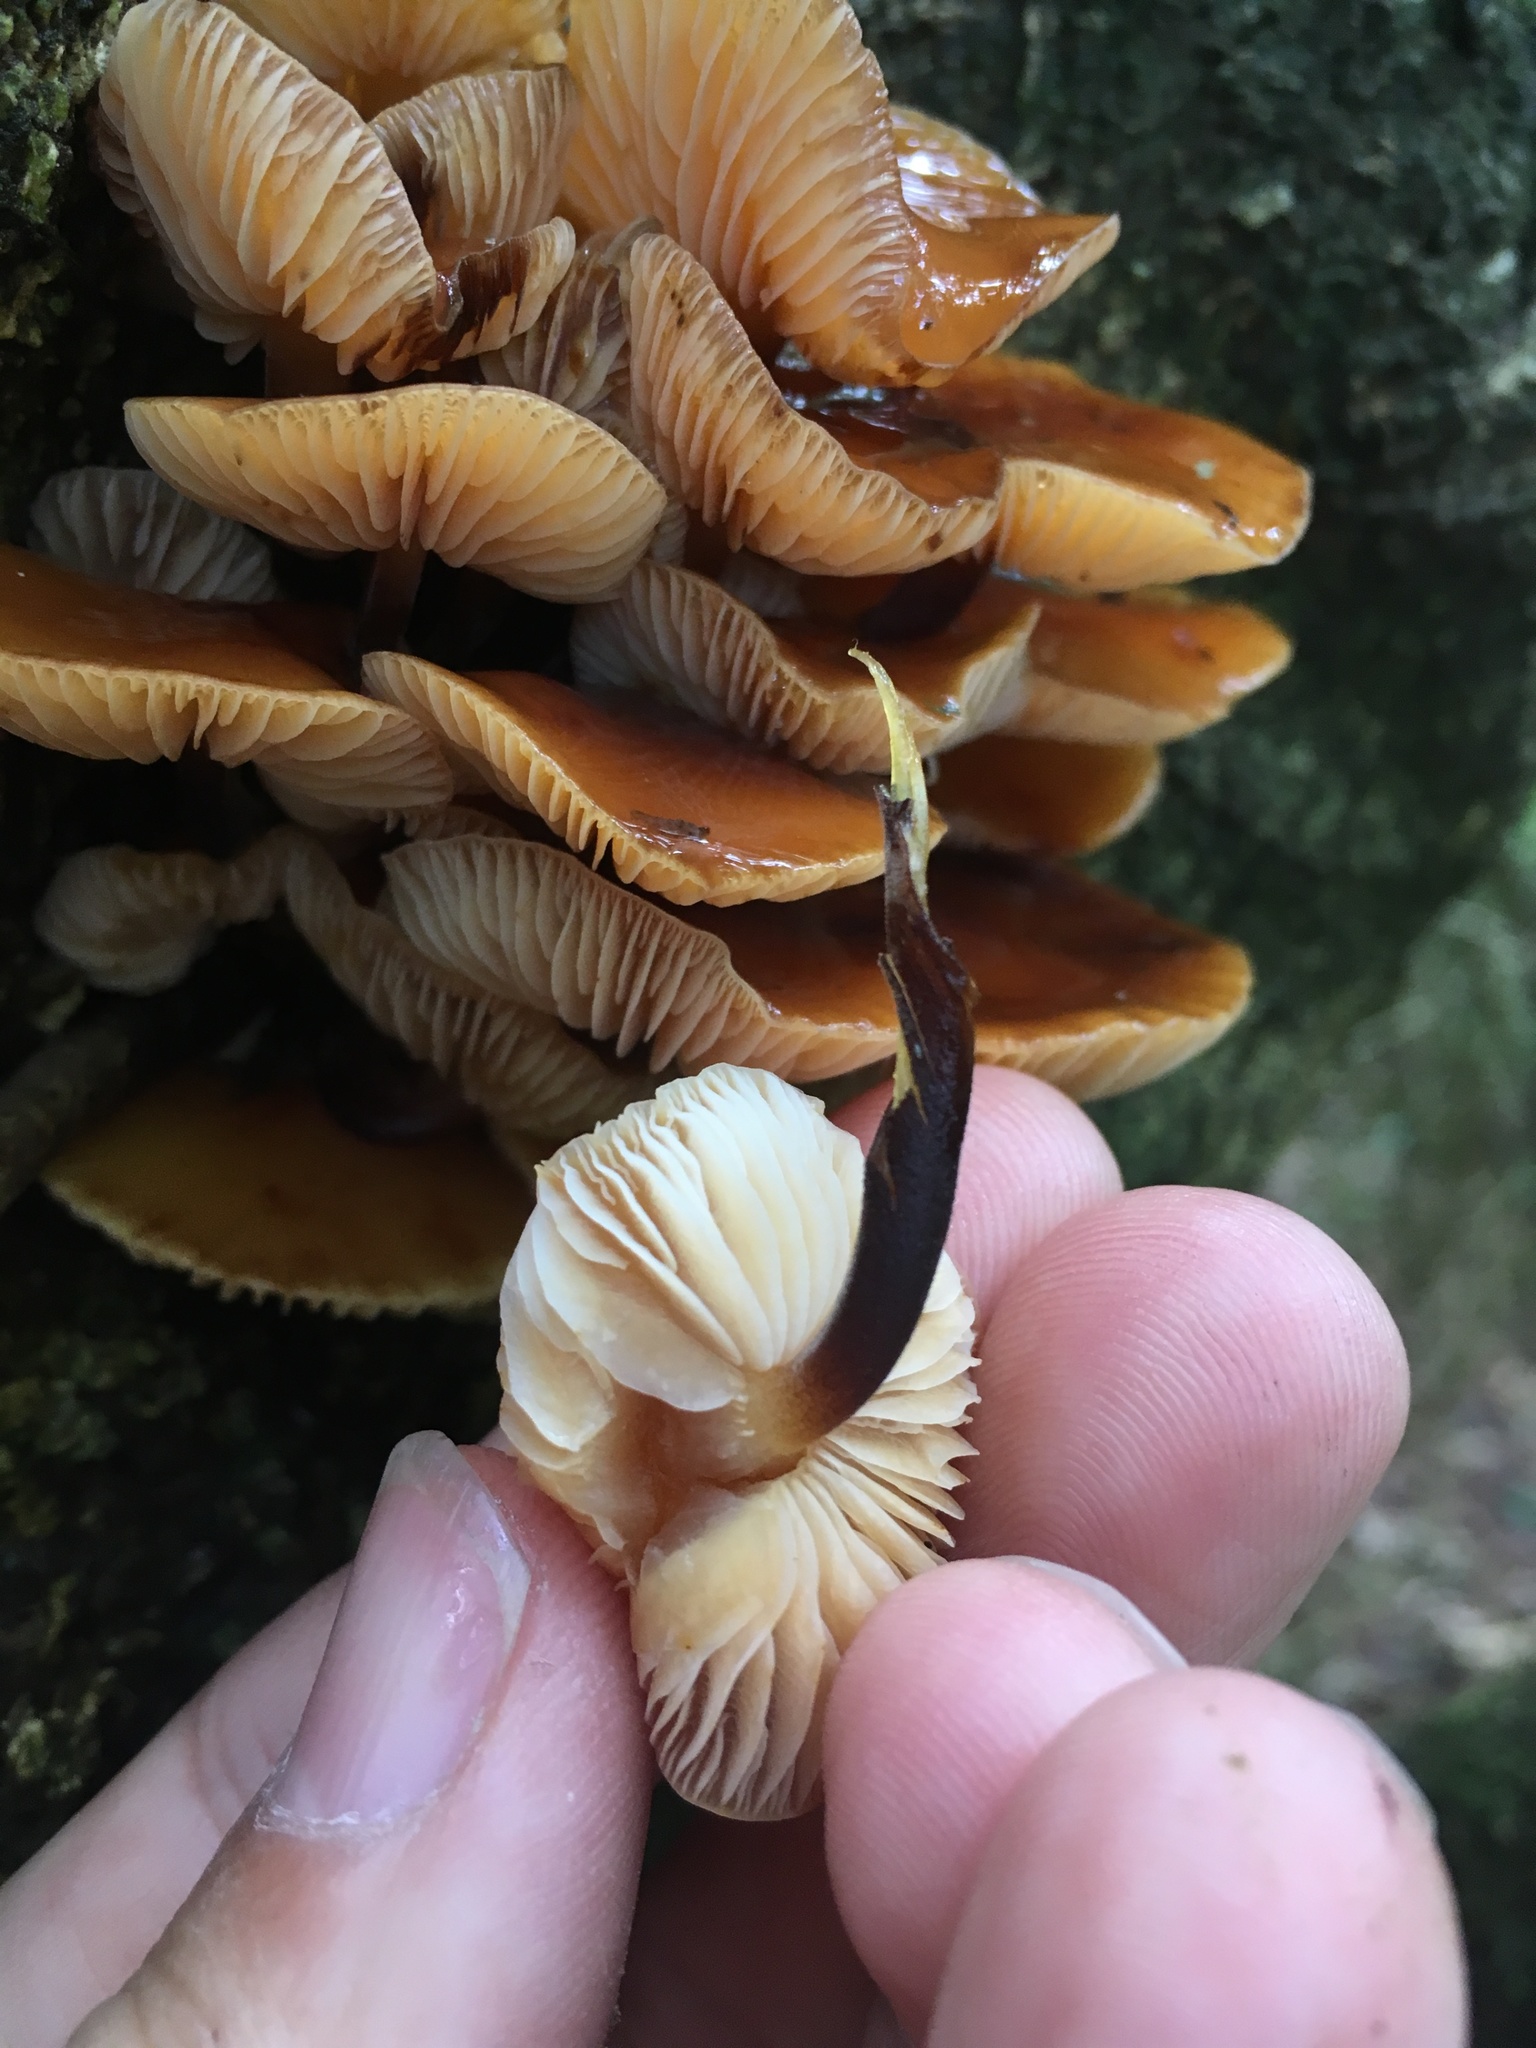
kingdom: Fungi
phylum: Basidiomycota
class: Agaricomycetes
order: Agaricales
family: Physalacriaceae
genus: Flammulina
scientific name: Flammulina velutipes
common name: Velvet shank
